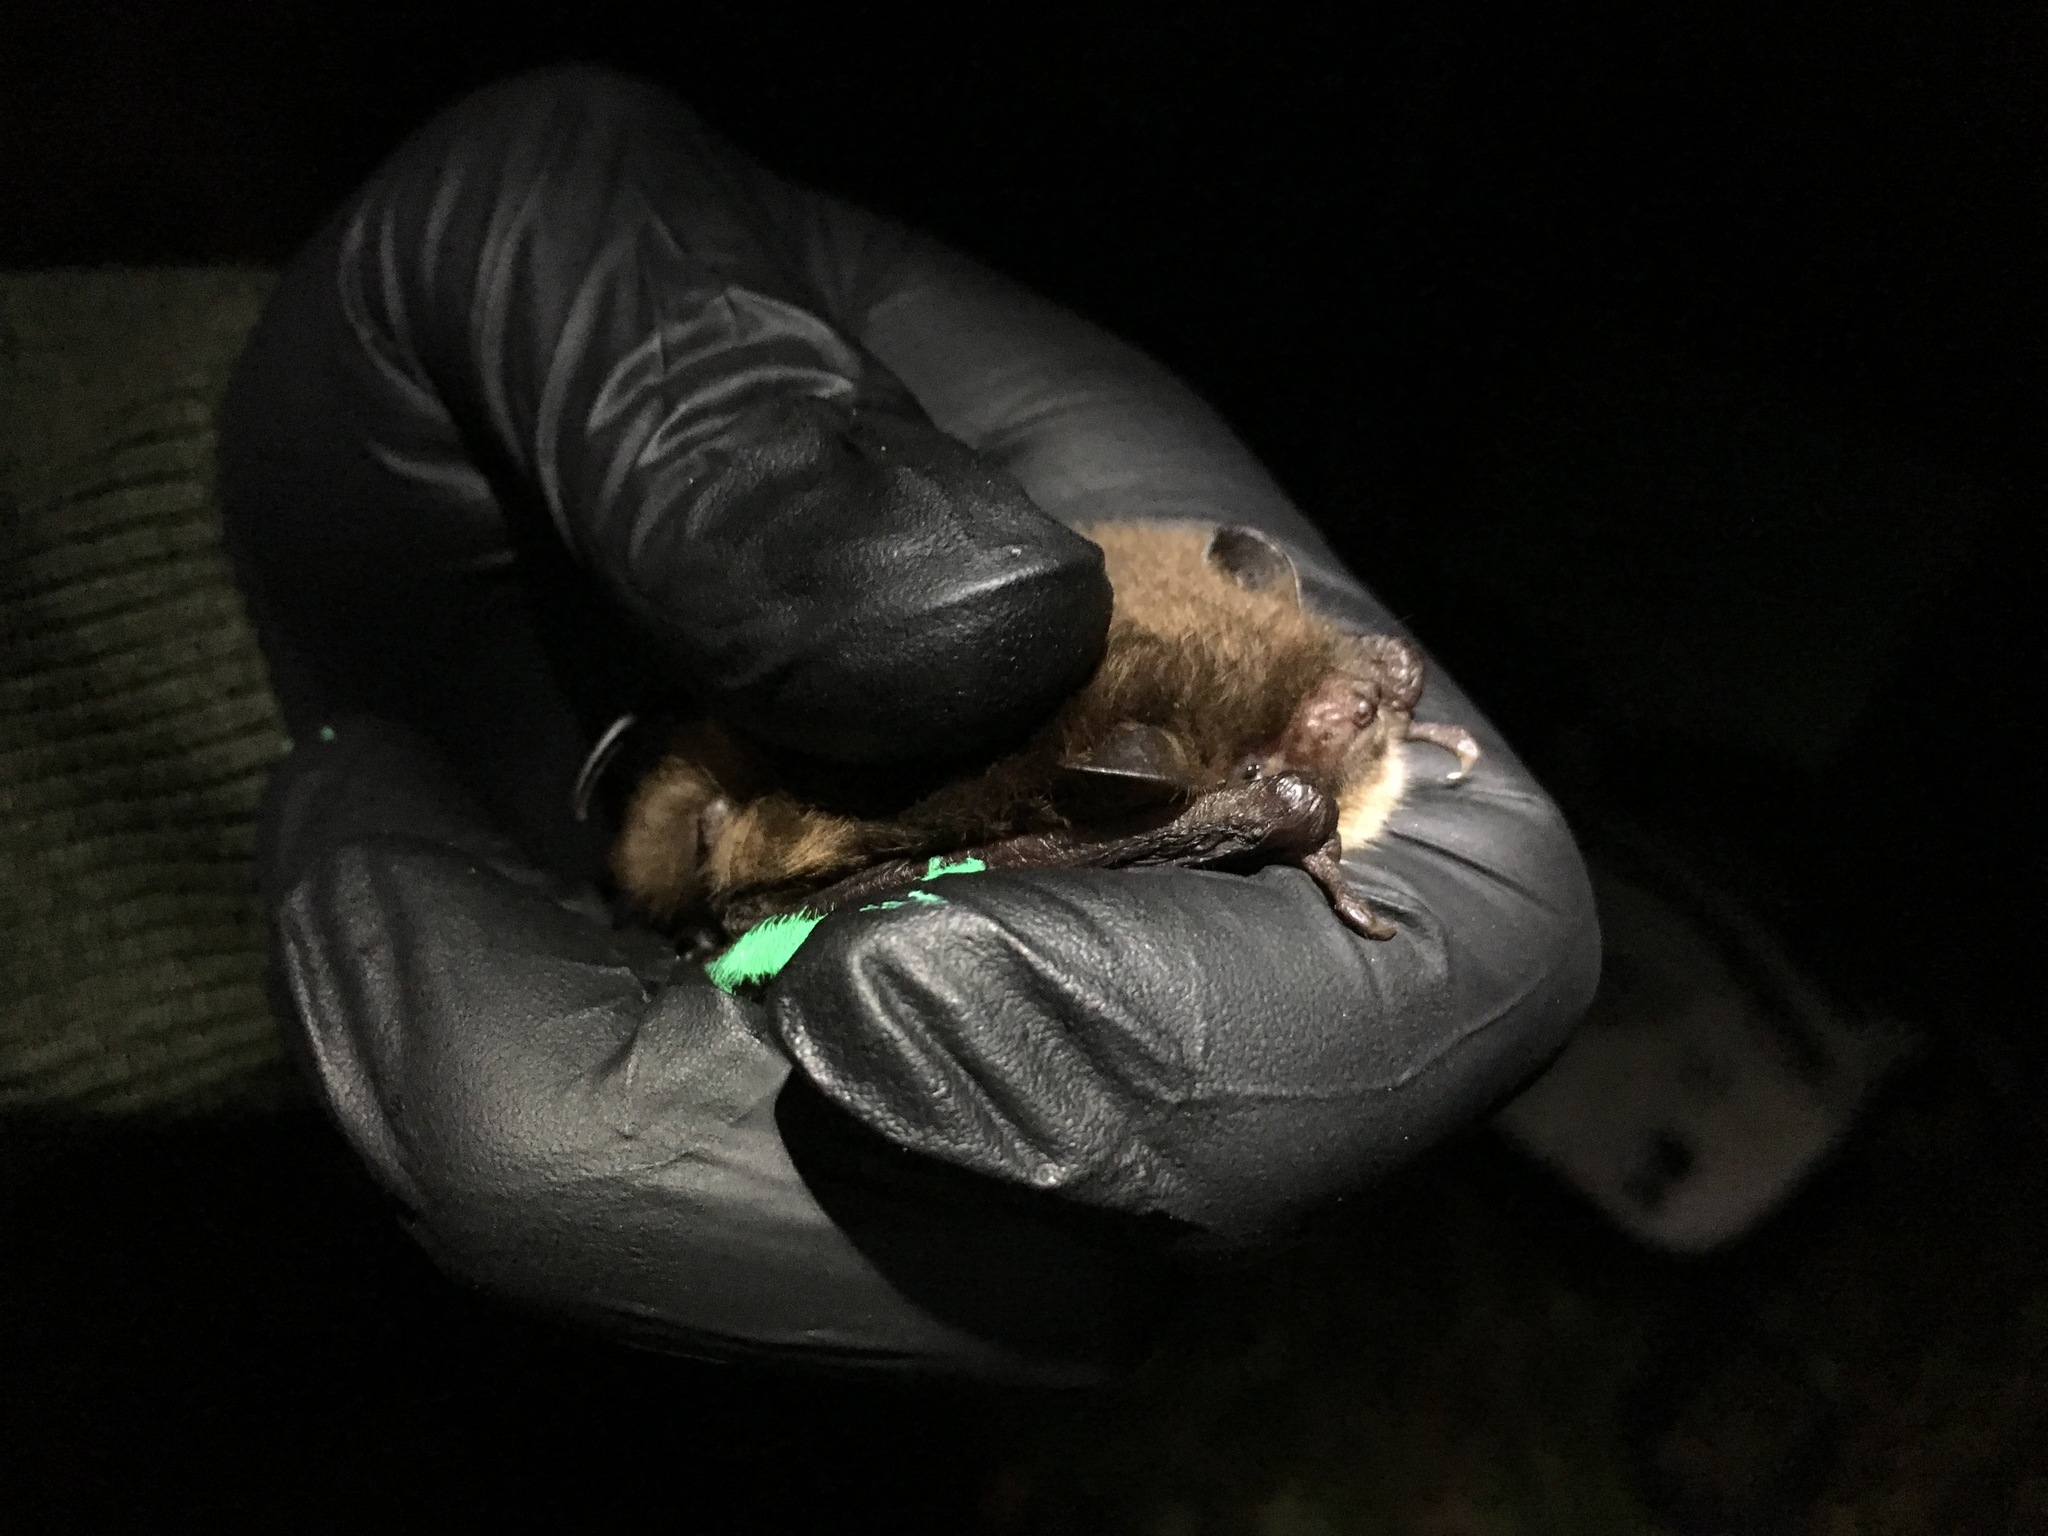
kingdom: Animalia
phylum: Chordata
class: Mammalia
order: Chiroptera
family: Vespertilionidae
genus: Myotis
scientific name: Myotis daubentonii
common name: Daubenton's myotis
